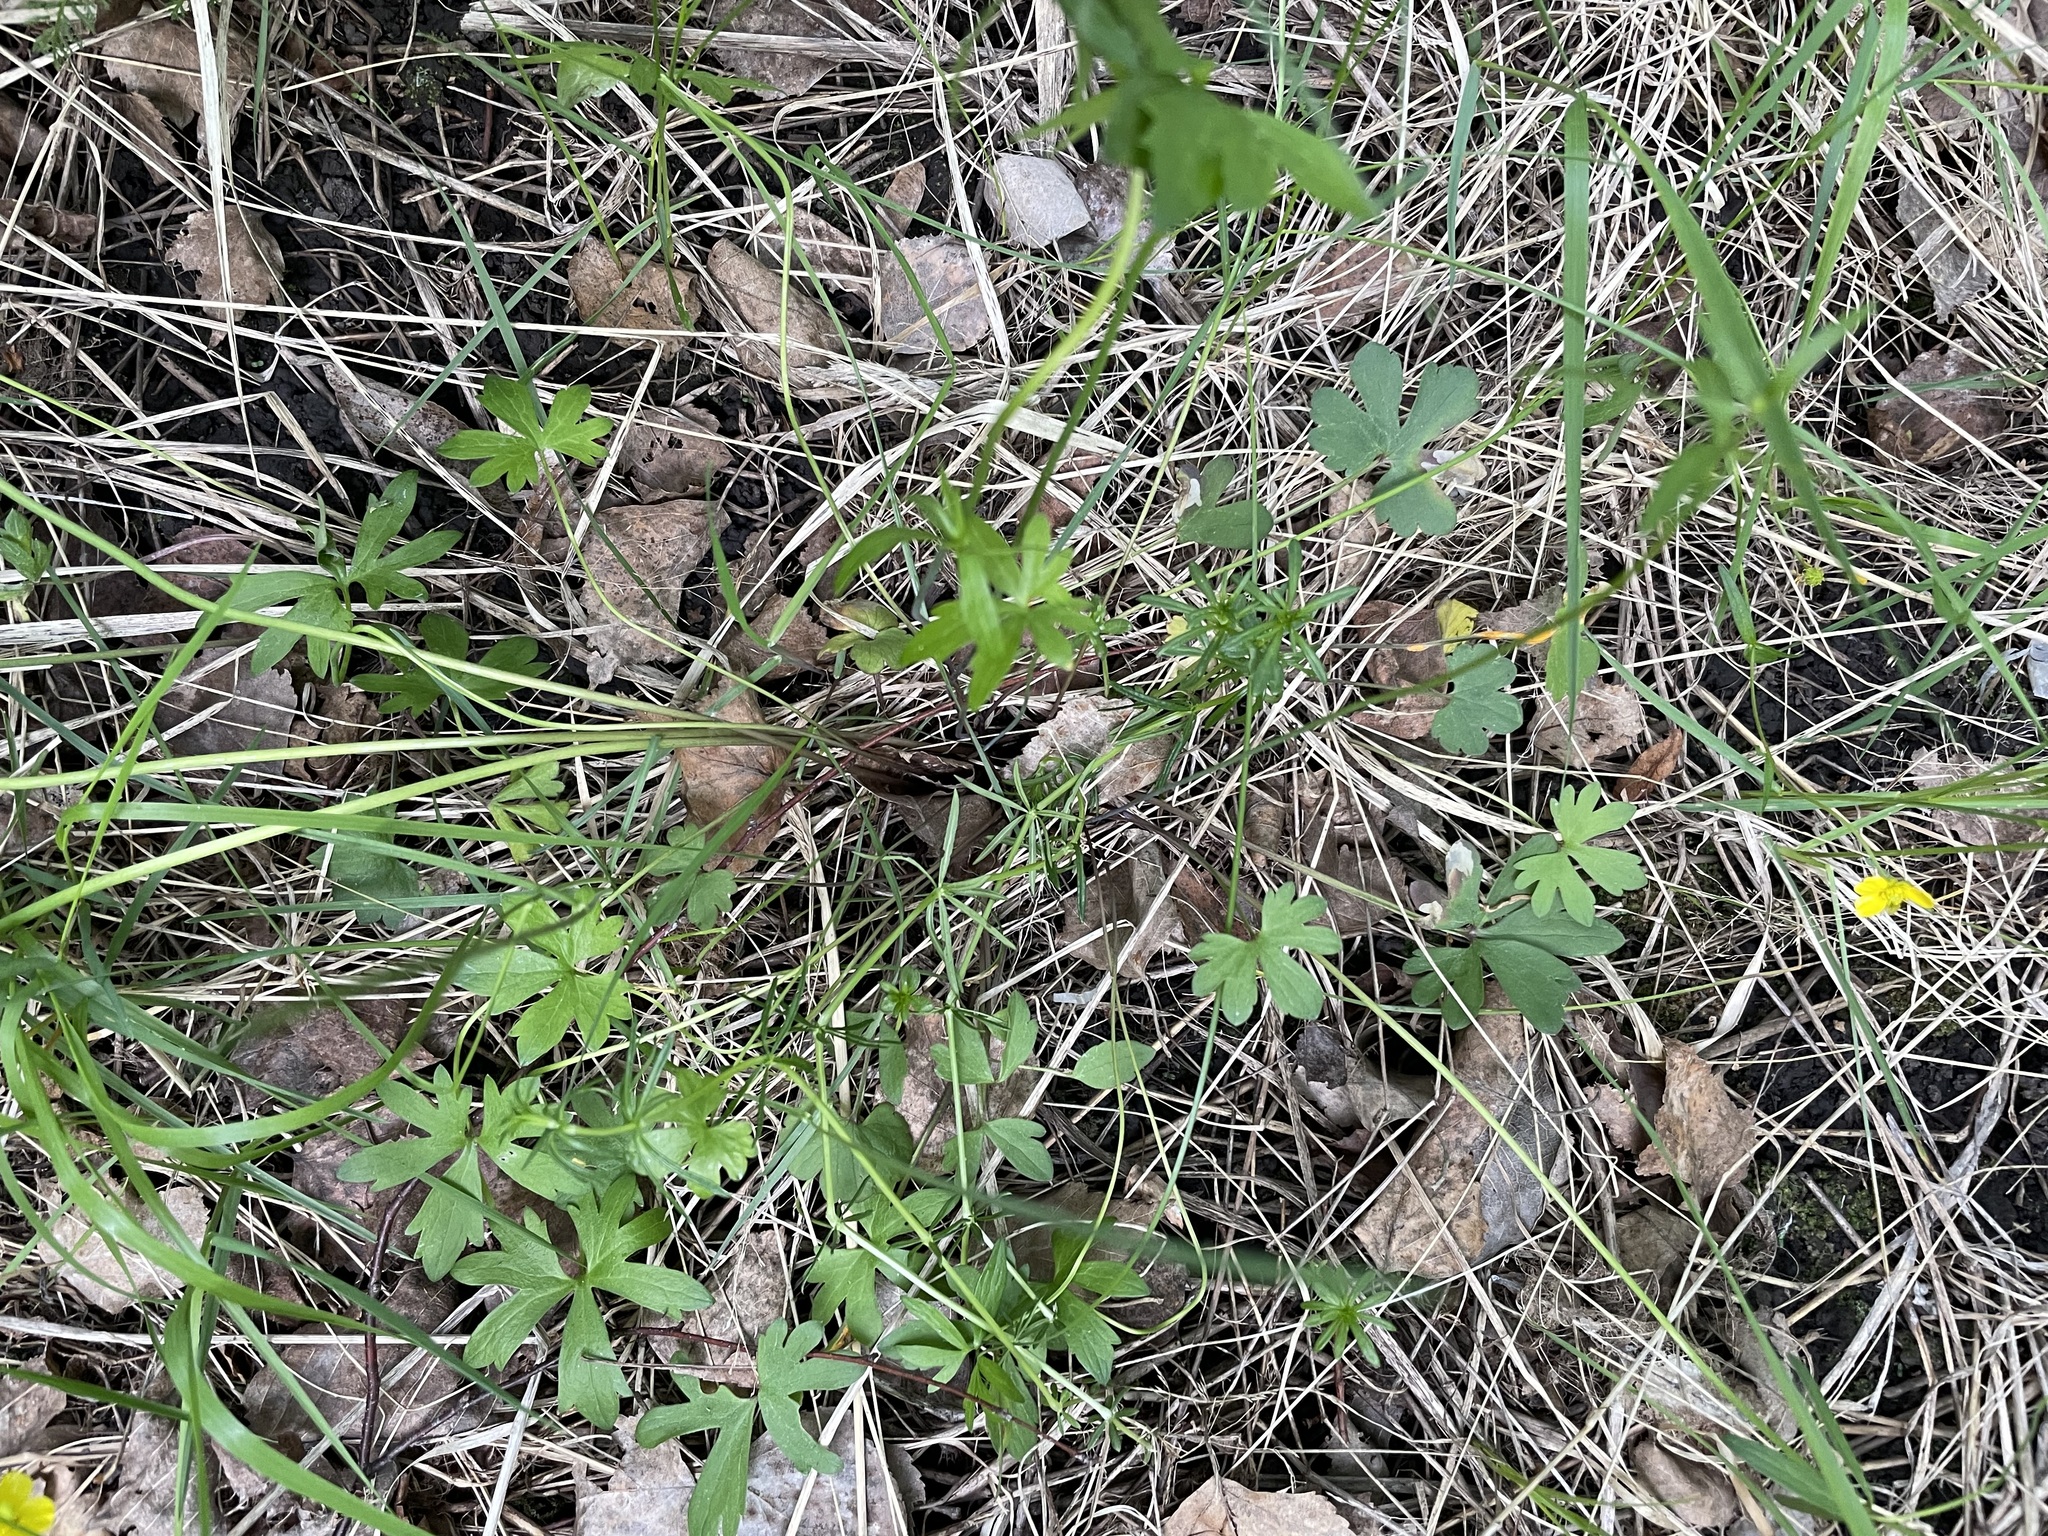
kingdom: Plantae
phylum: Tracheophyta
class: Magnoliopsida
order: Ranunculales
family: Ranunculaceae
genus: Ranunculus
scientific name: Ranunculus auricomus
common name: Goldilocks buttercup
